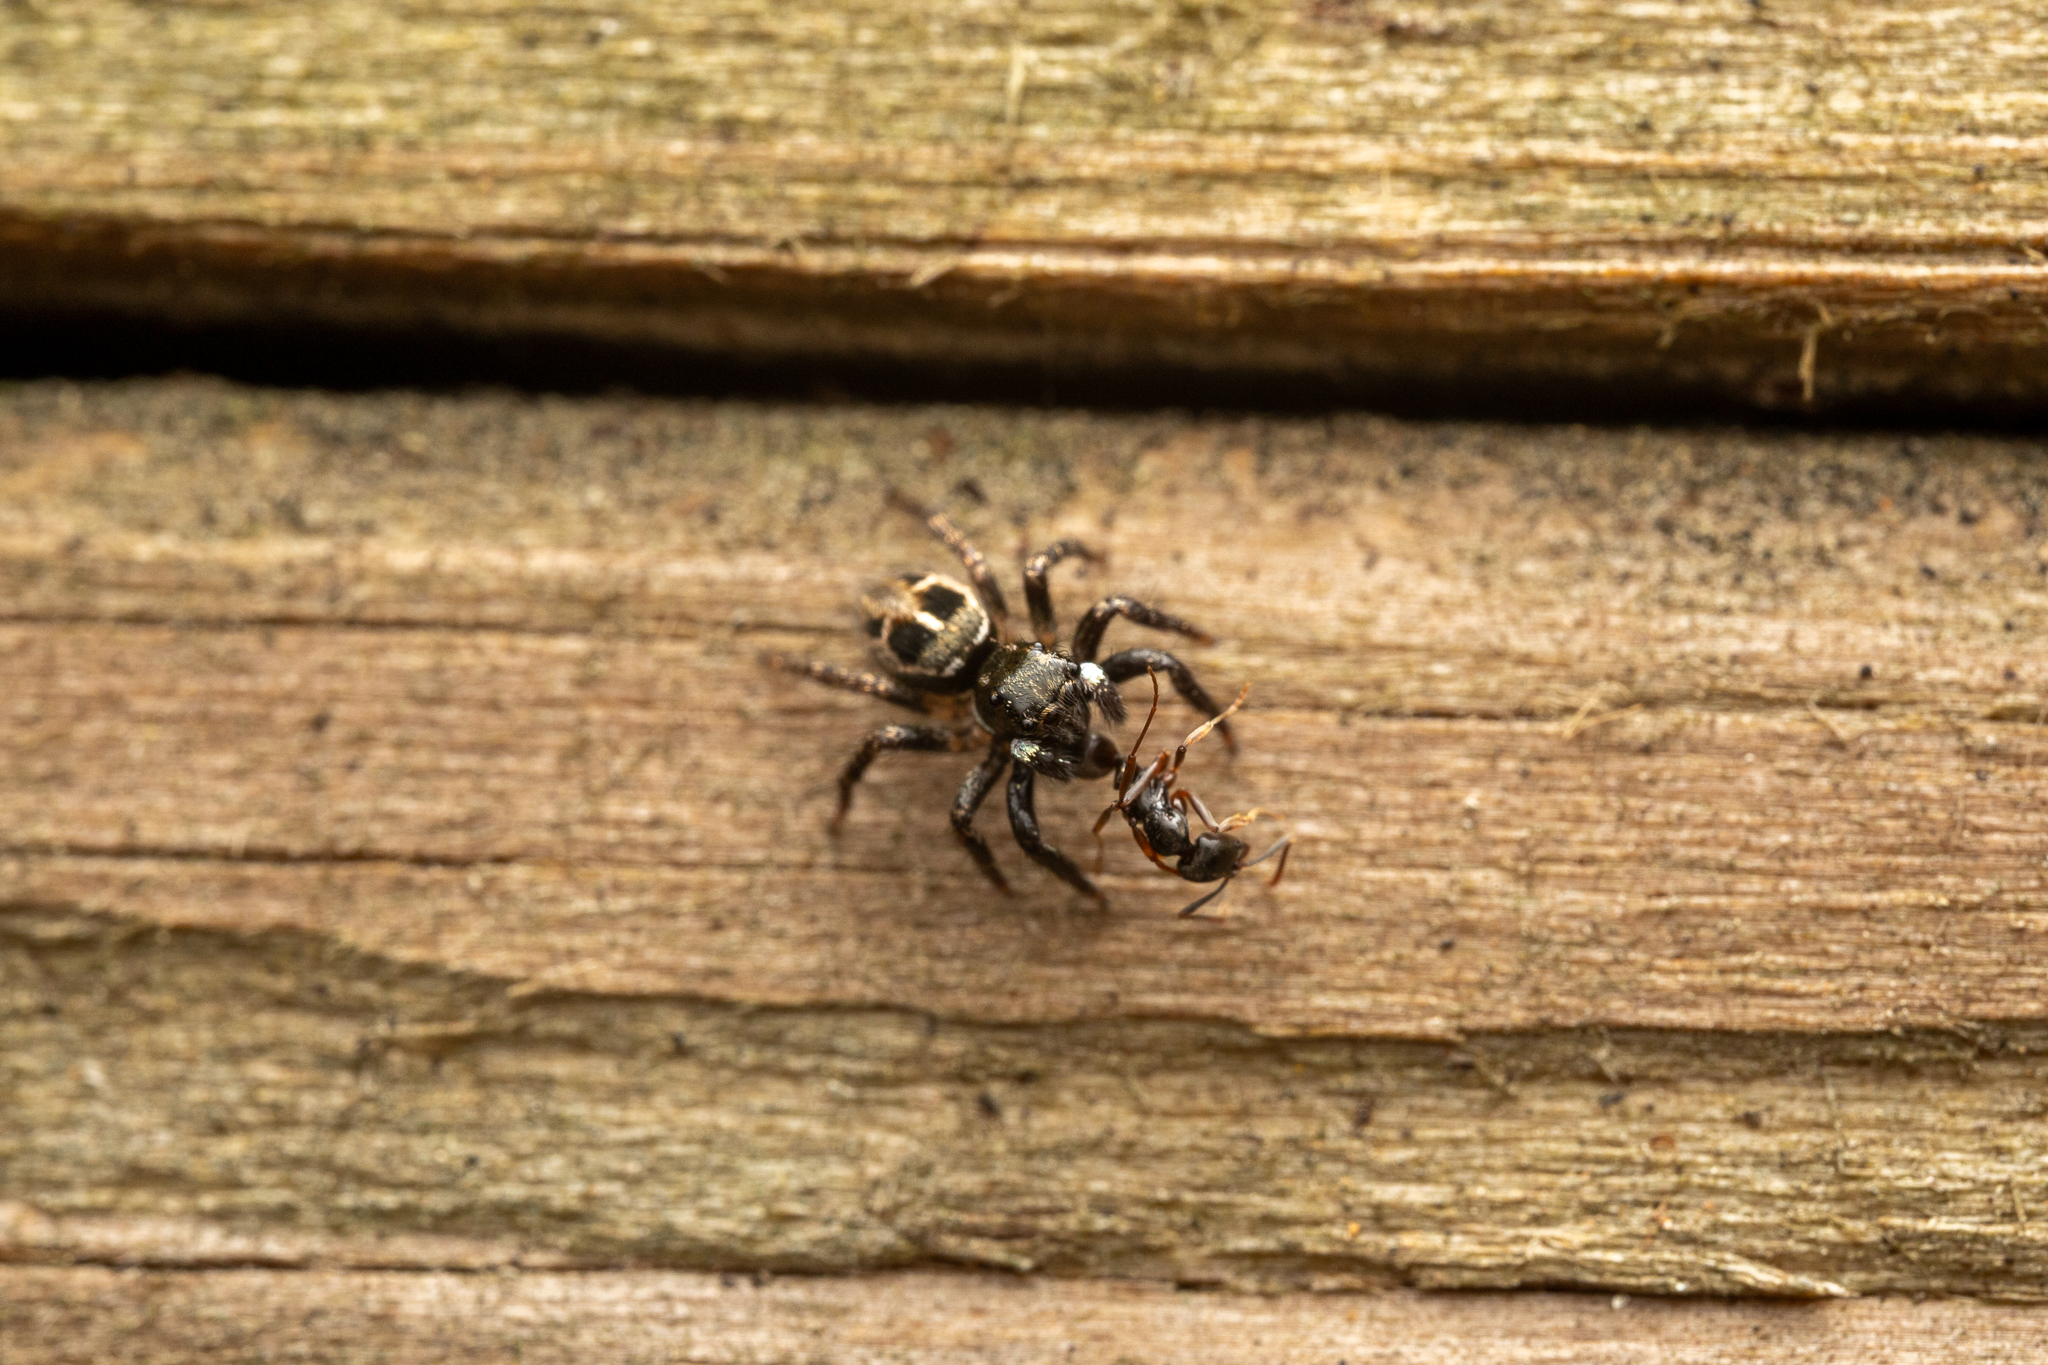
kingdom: Animalia
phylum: Arthropoda
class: Arachnida
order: Araneae
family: Salticidae
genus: Anasaitis
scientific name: Anasaitis canosa
